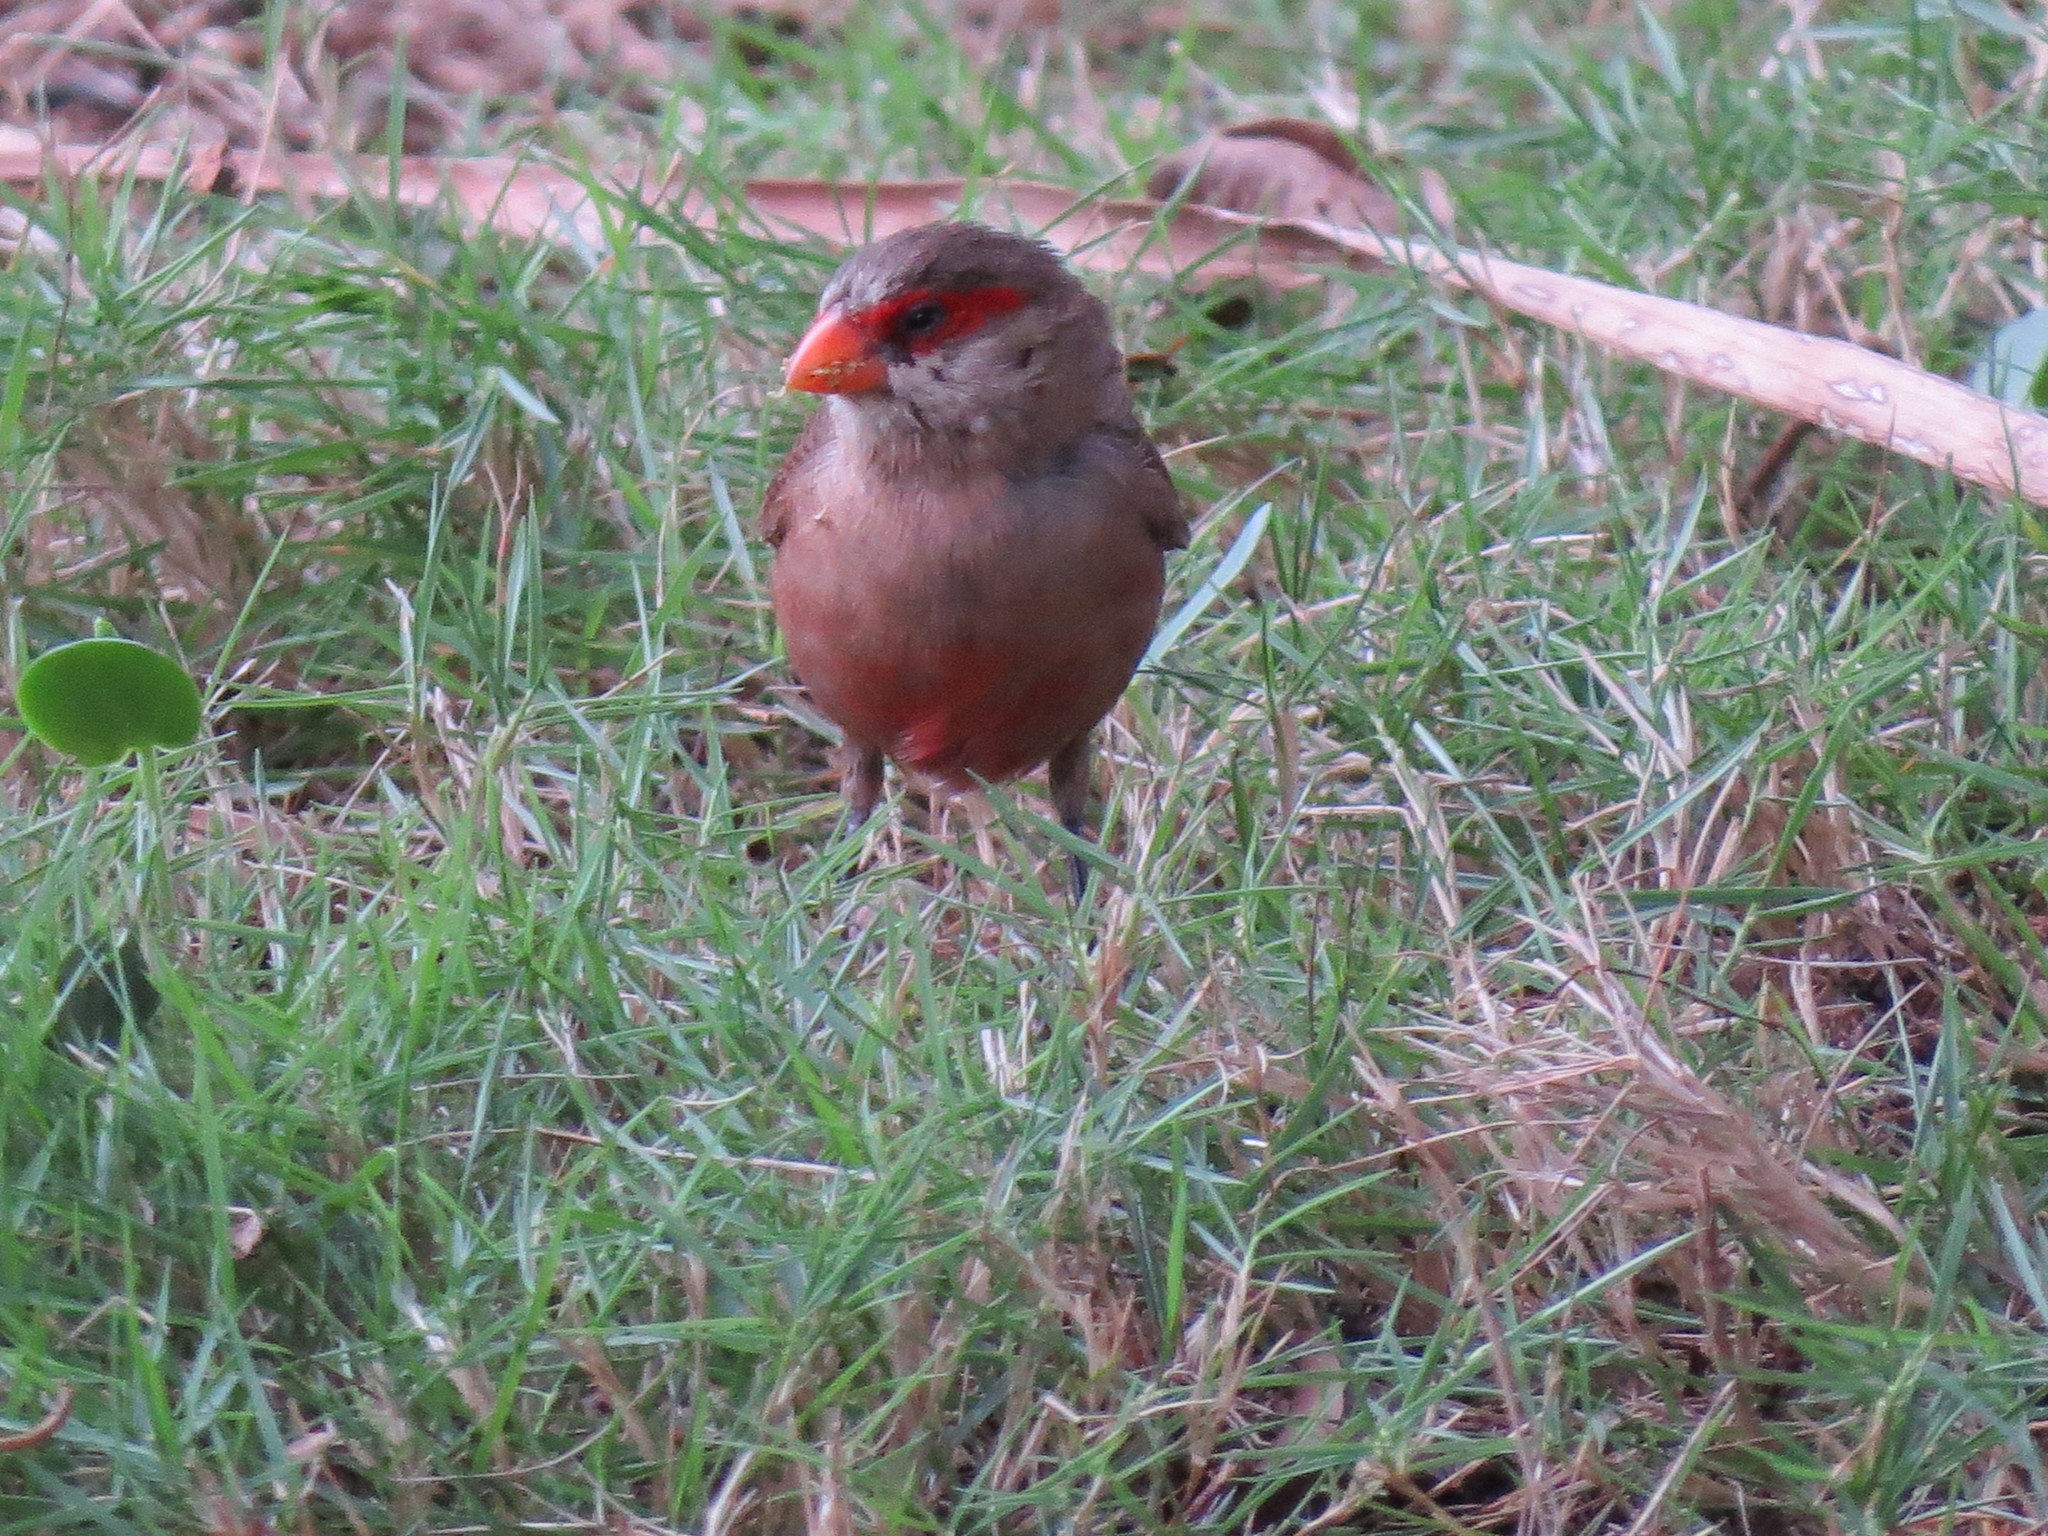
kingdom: Animalia
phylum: Chordata
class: Aves
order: Passeriformes
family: Estrildidae
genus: Estrilda
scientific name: Estrilda astrild
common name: Common waxbill
